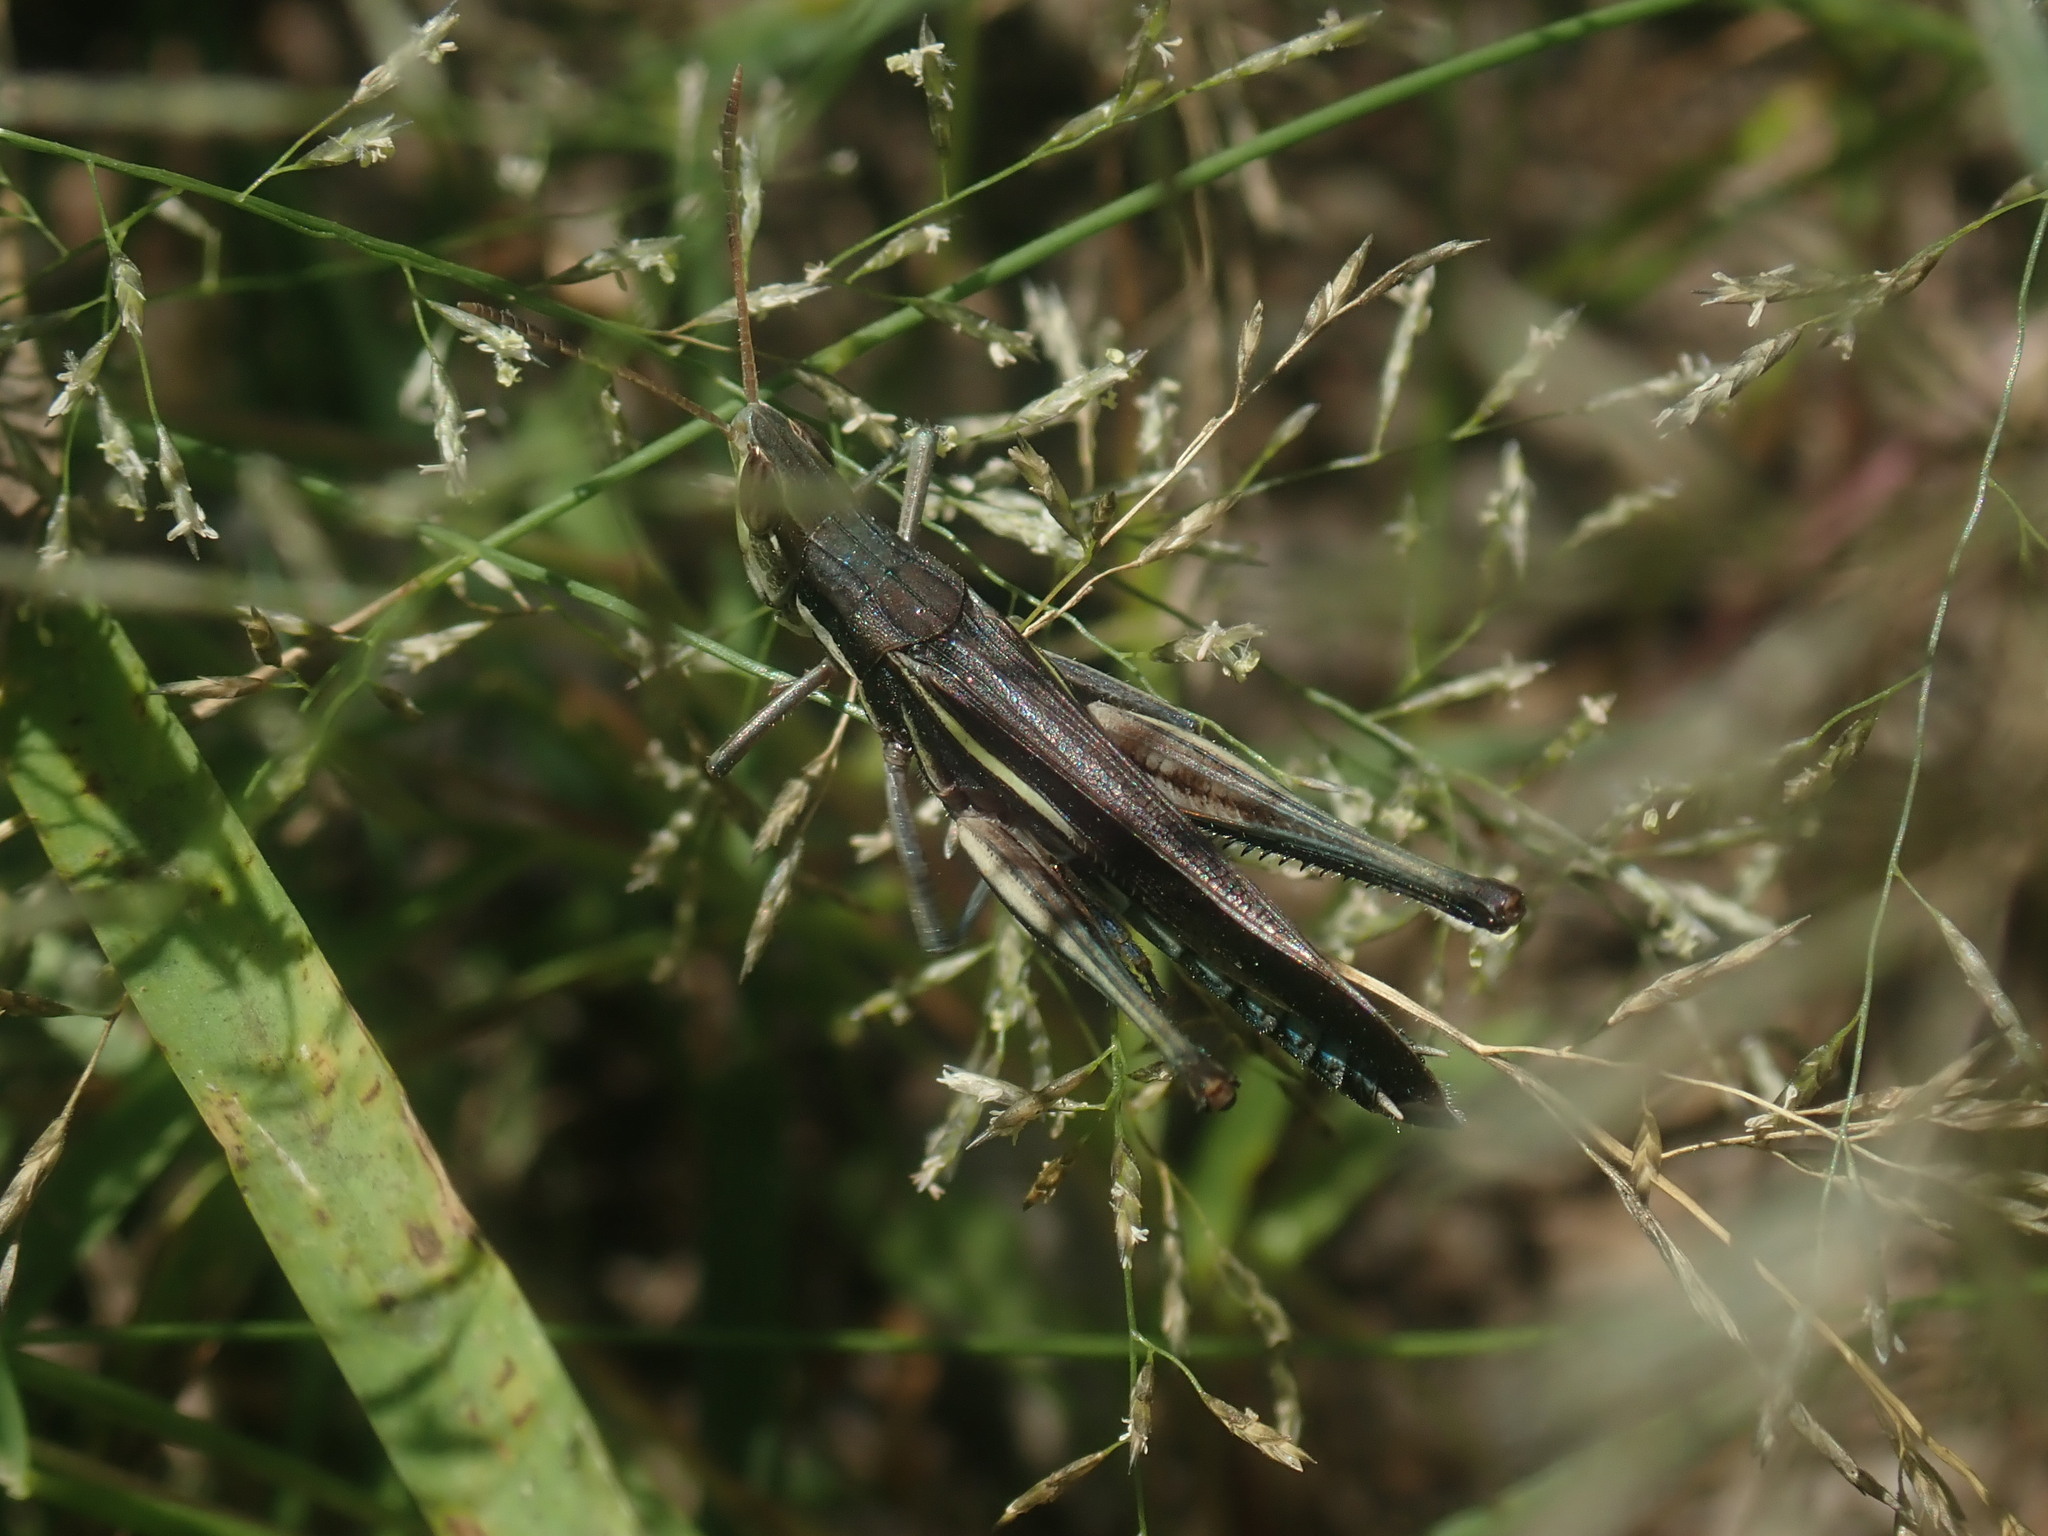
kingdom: Animalia
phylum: Arthropoda
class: Insecta
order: Orthoptera
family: Acrididae
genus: Syrbula
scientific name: Syrbula montezuma
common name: Montezuma's grasshopper
